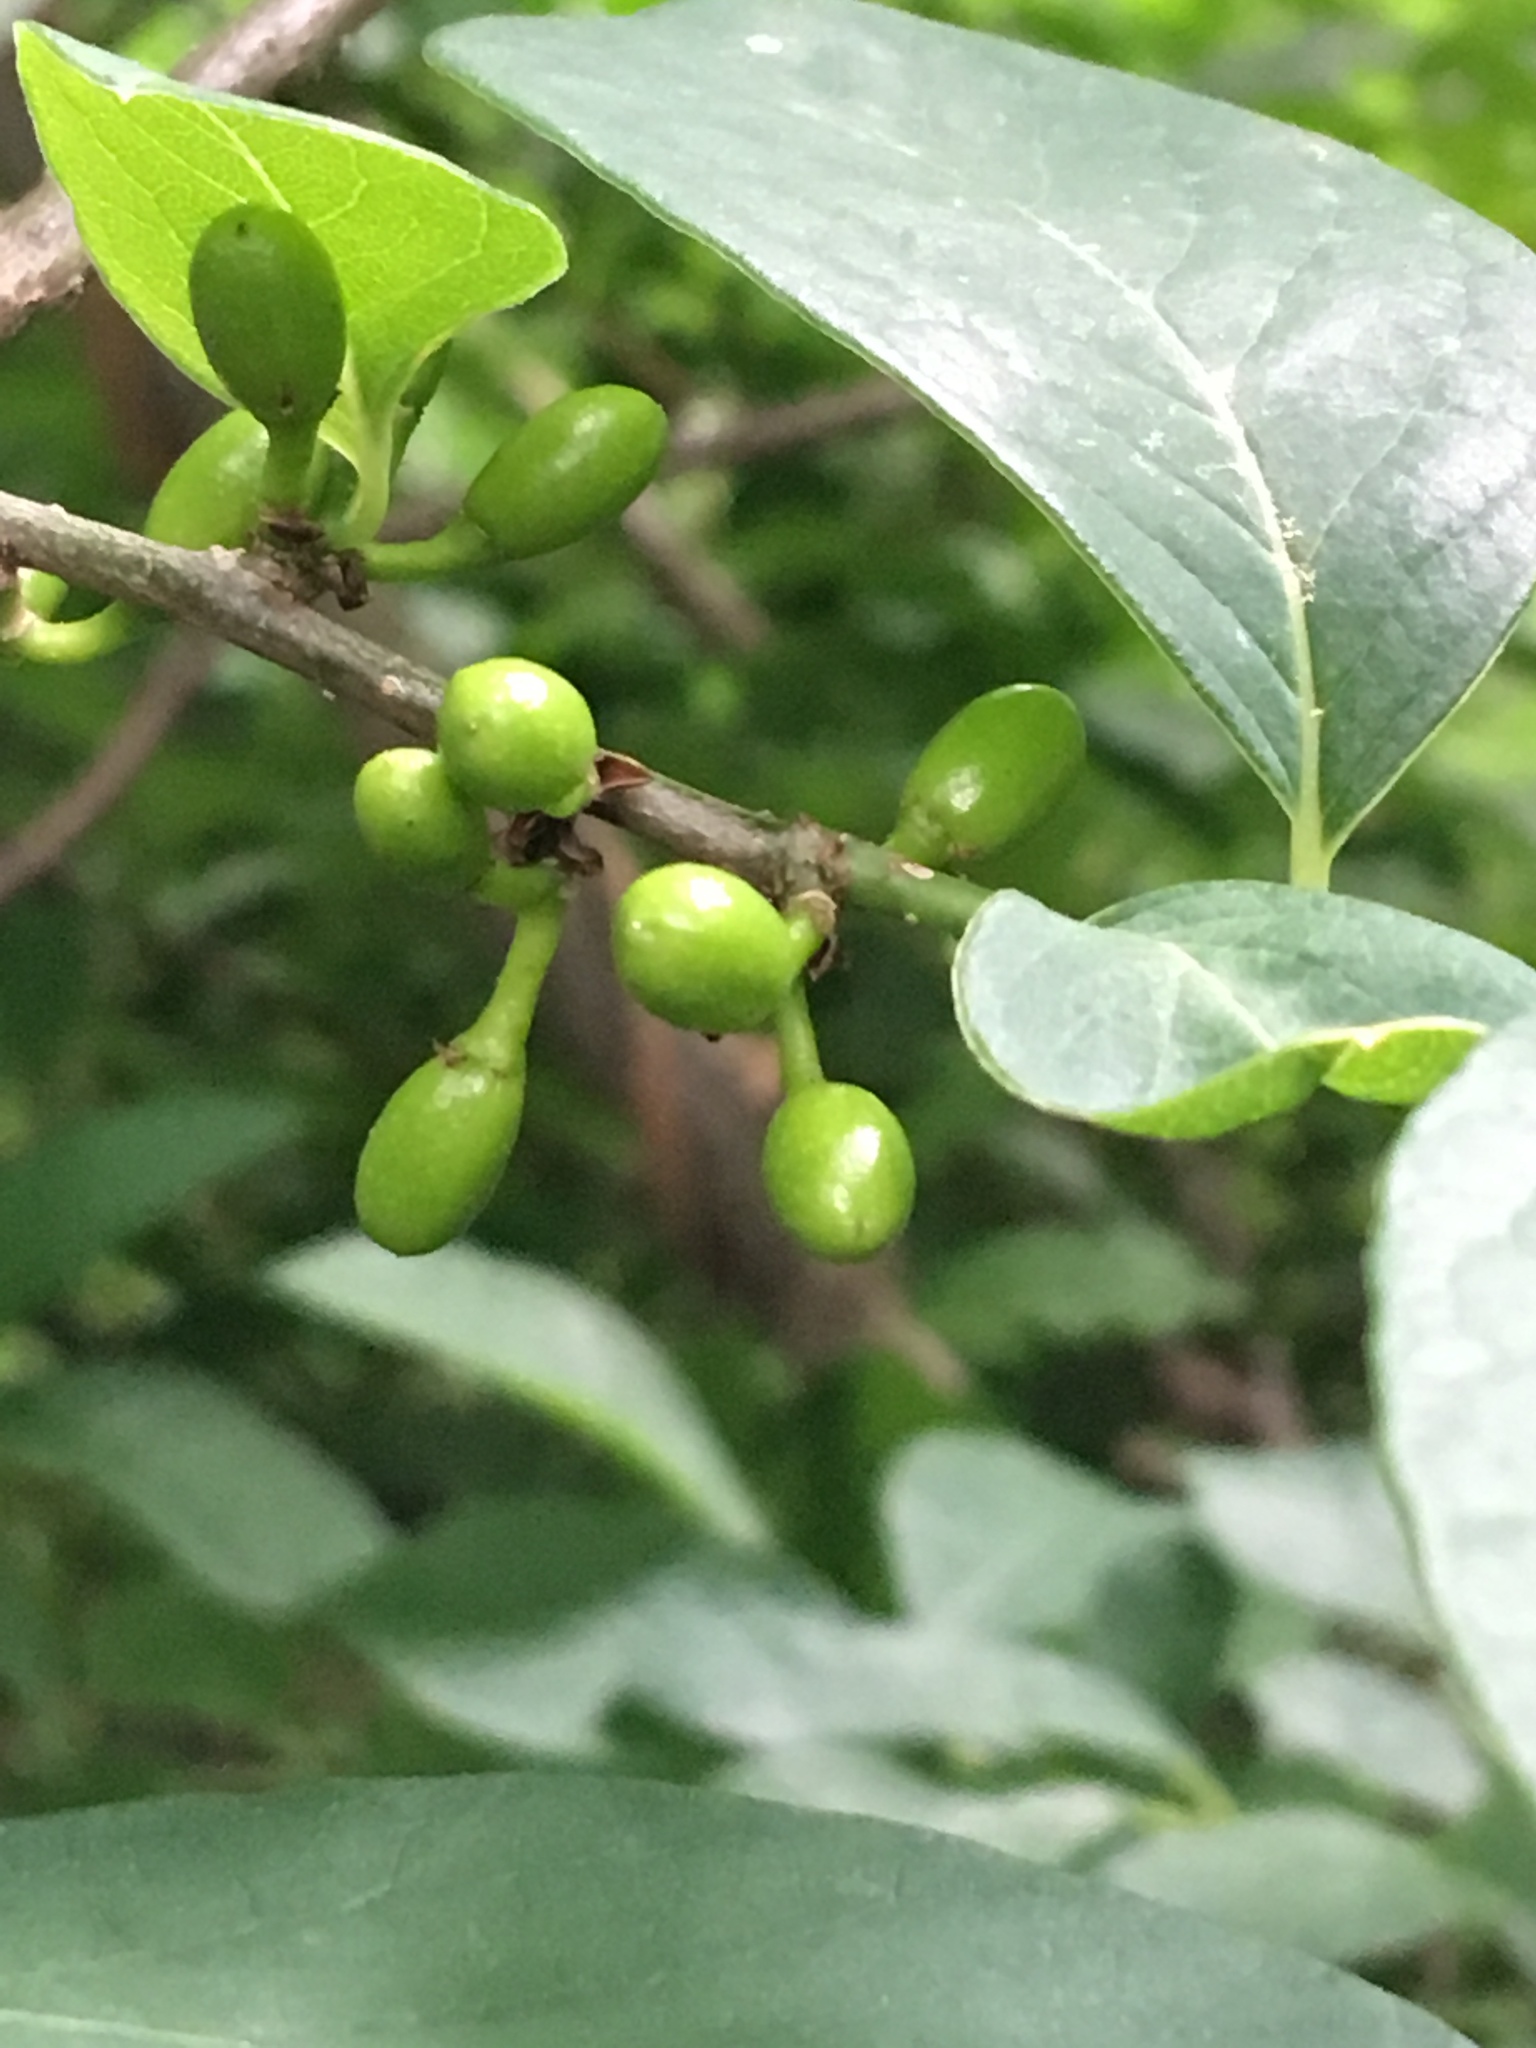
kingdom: Plantae
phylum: Tracheophyta
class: Magnoliopsida
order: Laurales
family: Lauraceae
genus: Lindera
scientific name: Lindera benzoin
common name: Spicebush
